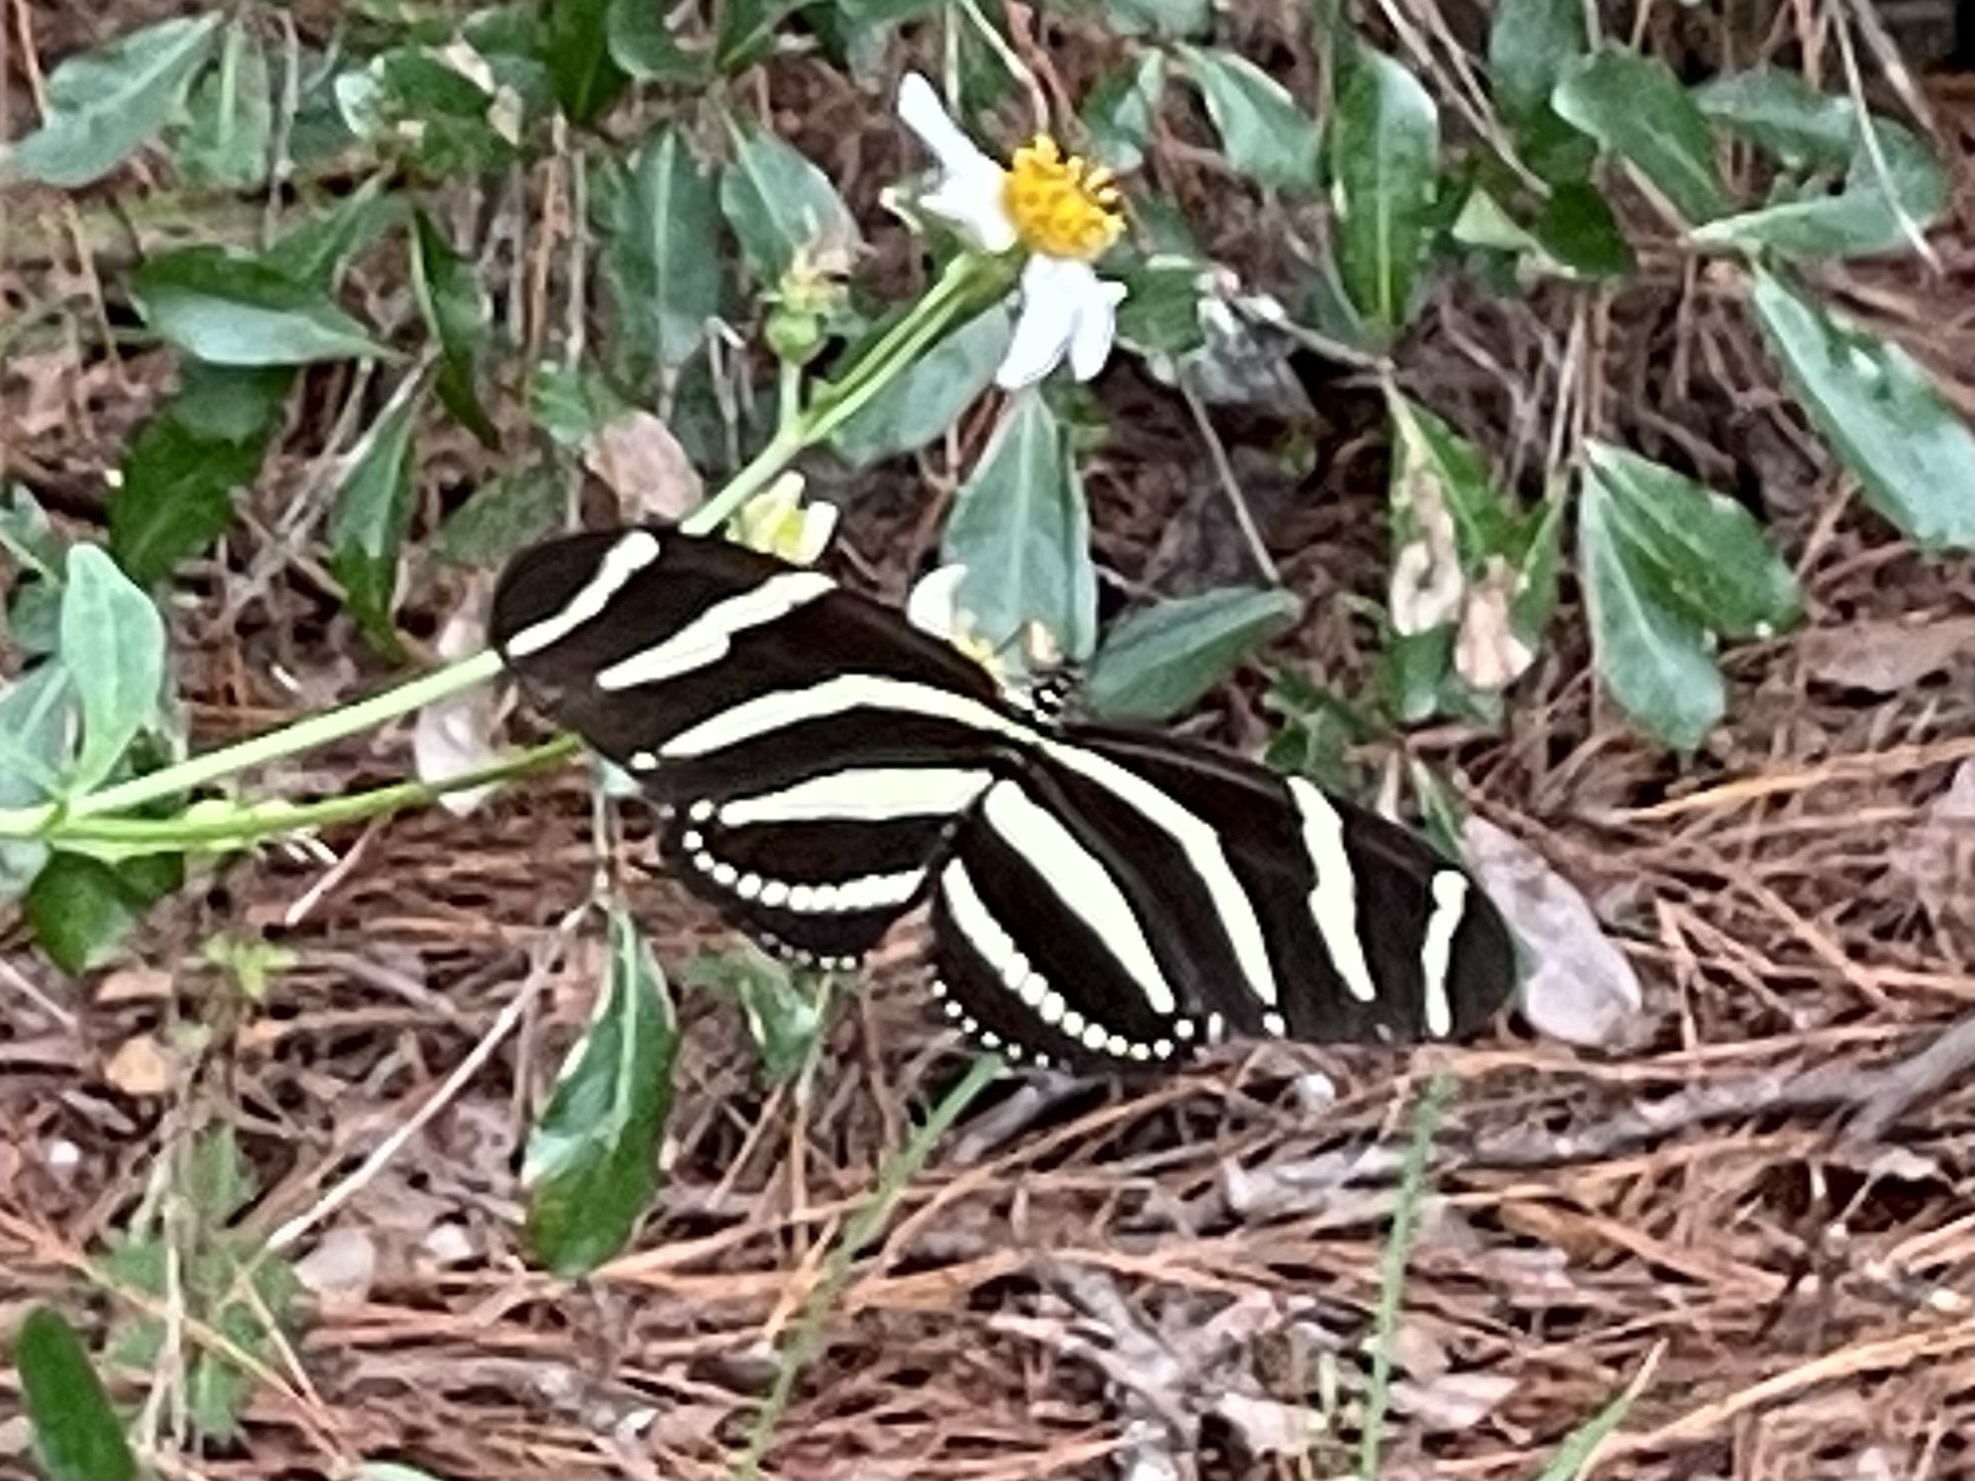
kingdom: Animalia
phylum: Arthropoda
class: Insecta
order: Lepidoptera
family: Nymphalidae
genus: Heliconius
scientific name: Heliconius charithonia
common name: Zebra long wing
